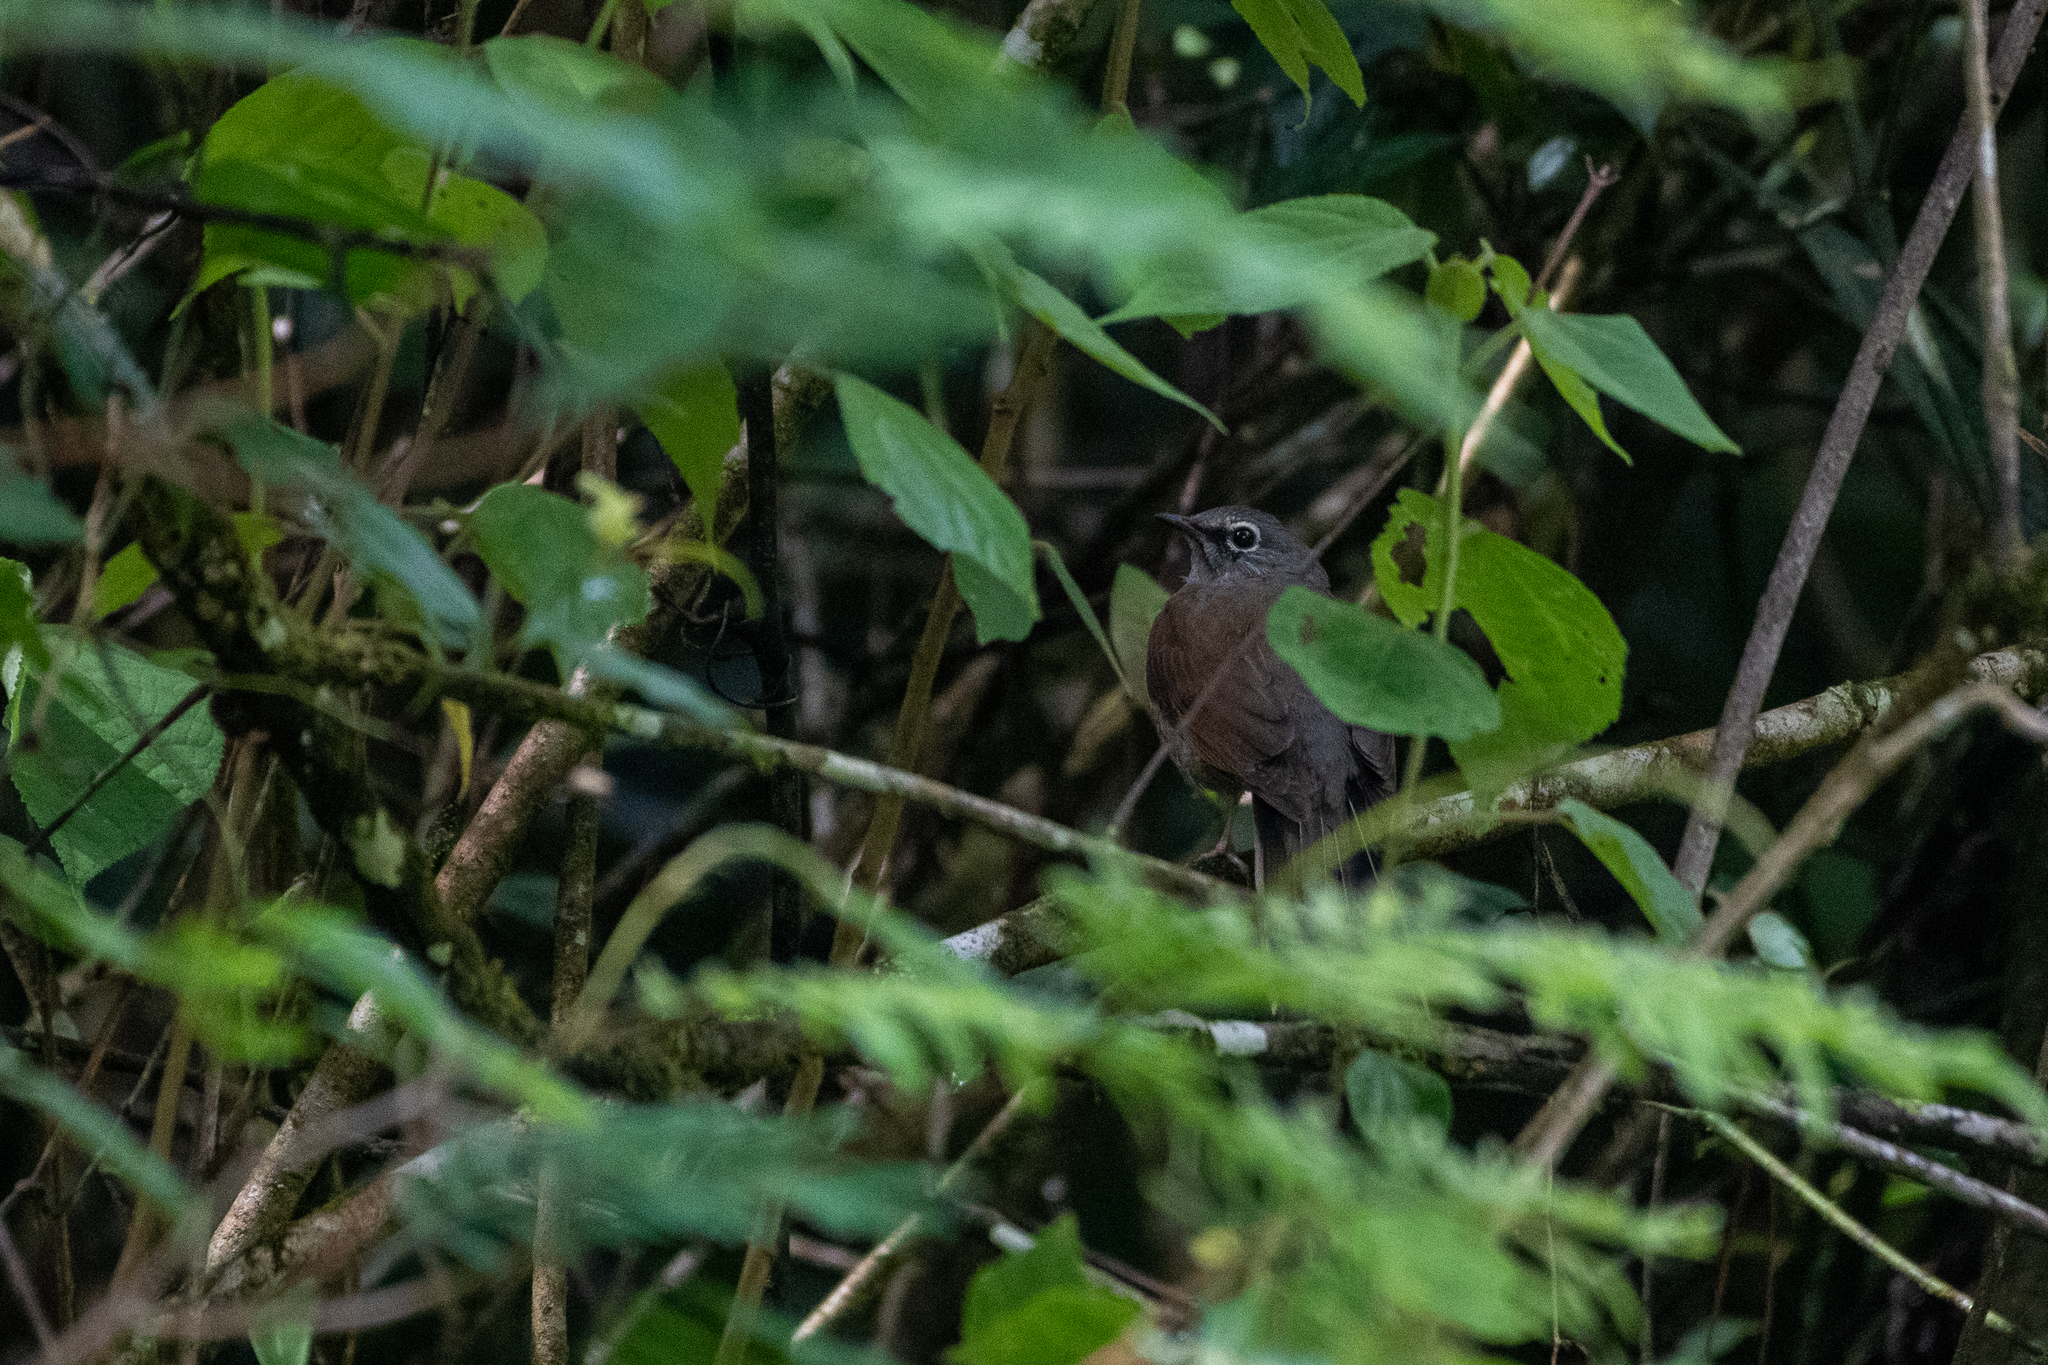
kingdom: Animalia
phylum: Chordata
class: Aves
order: Passeriformes
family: Turdidae
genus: Myadestes
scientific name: Myadestes occidentalis
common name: Brown-backed solitaire
